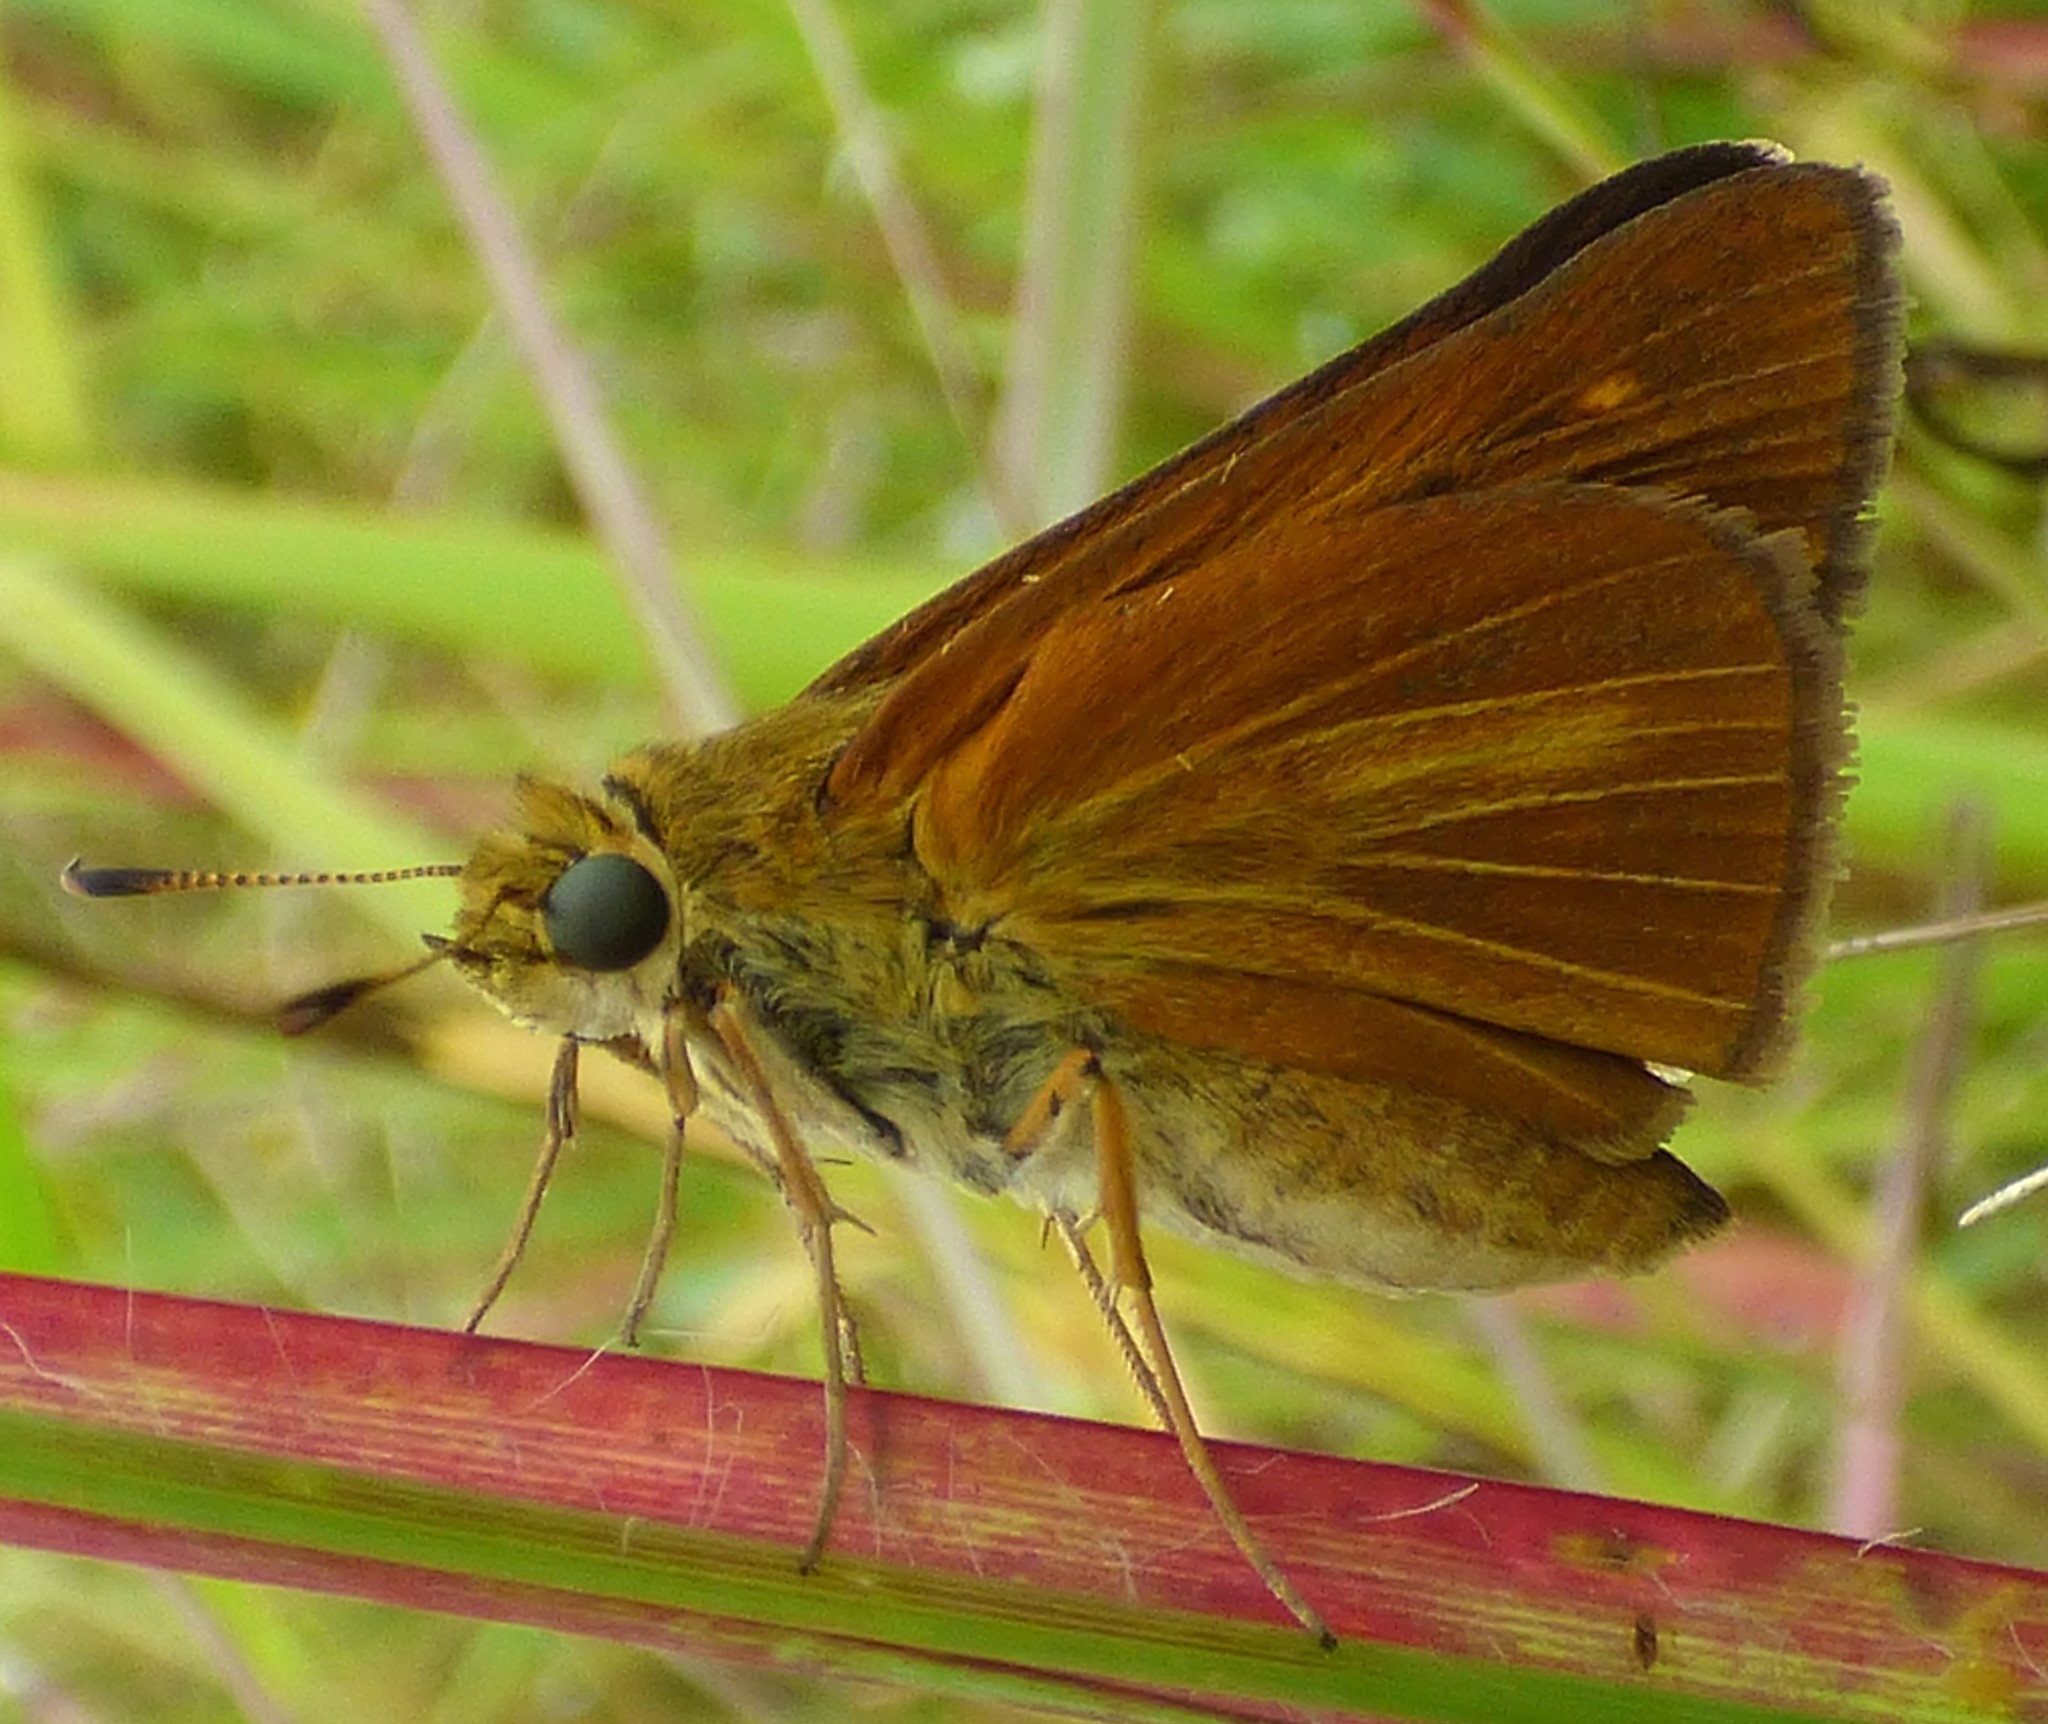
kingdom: Animalia
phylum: Arthropoda
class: Insecta
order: Lepidoptera
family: Hesperiidae
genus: Euphyes
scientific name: Euphyes dion
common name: Dion skipper
